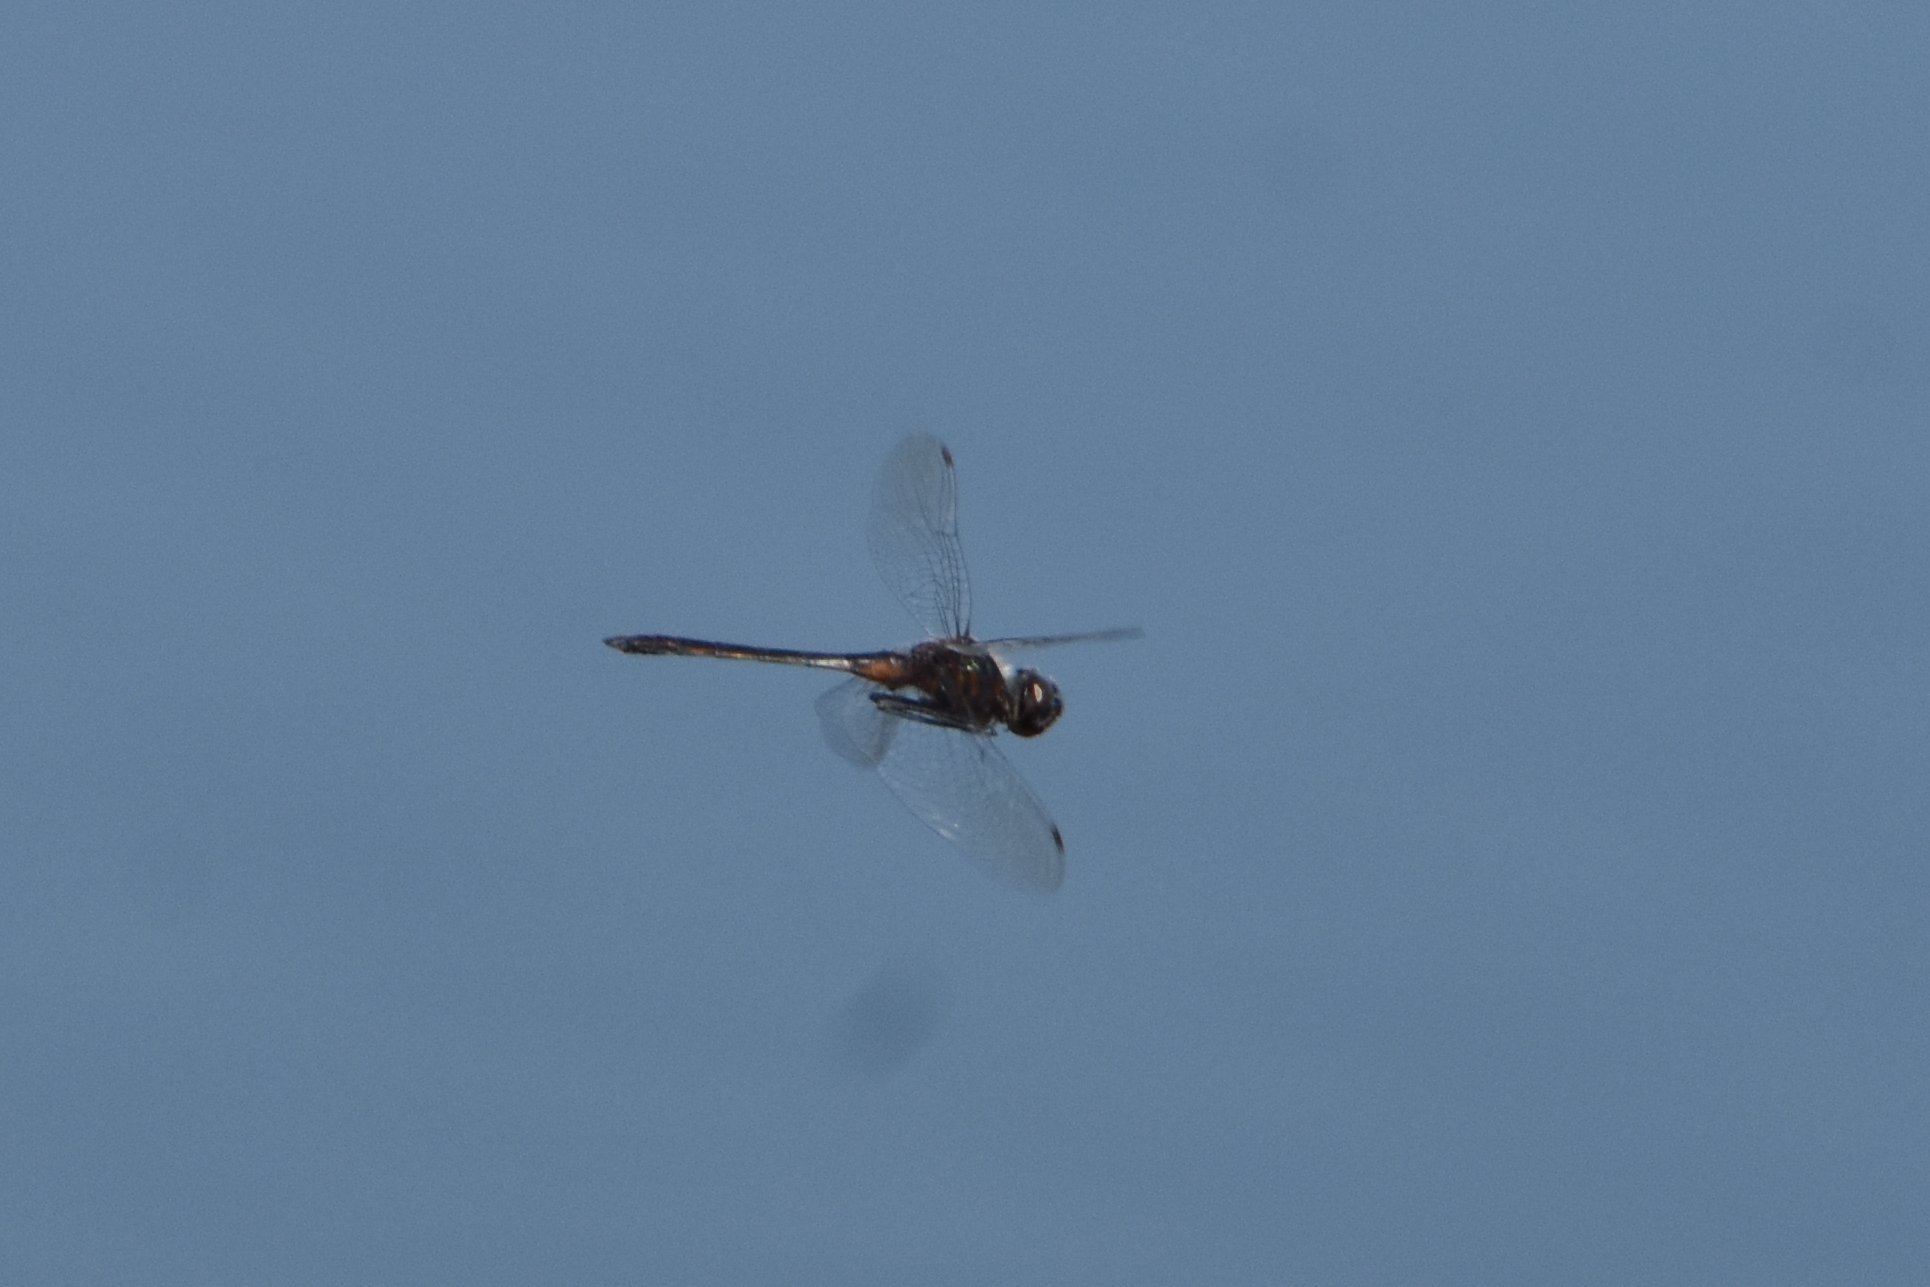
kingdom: Animalia
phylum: Arthropoda
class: Insecta
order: Odonata
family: Libellulidae
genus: Idiataphe
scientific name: Idiataphe cubensis
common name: Metallic pennant
